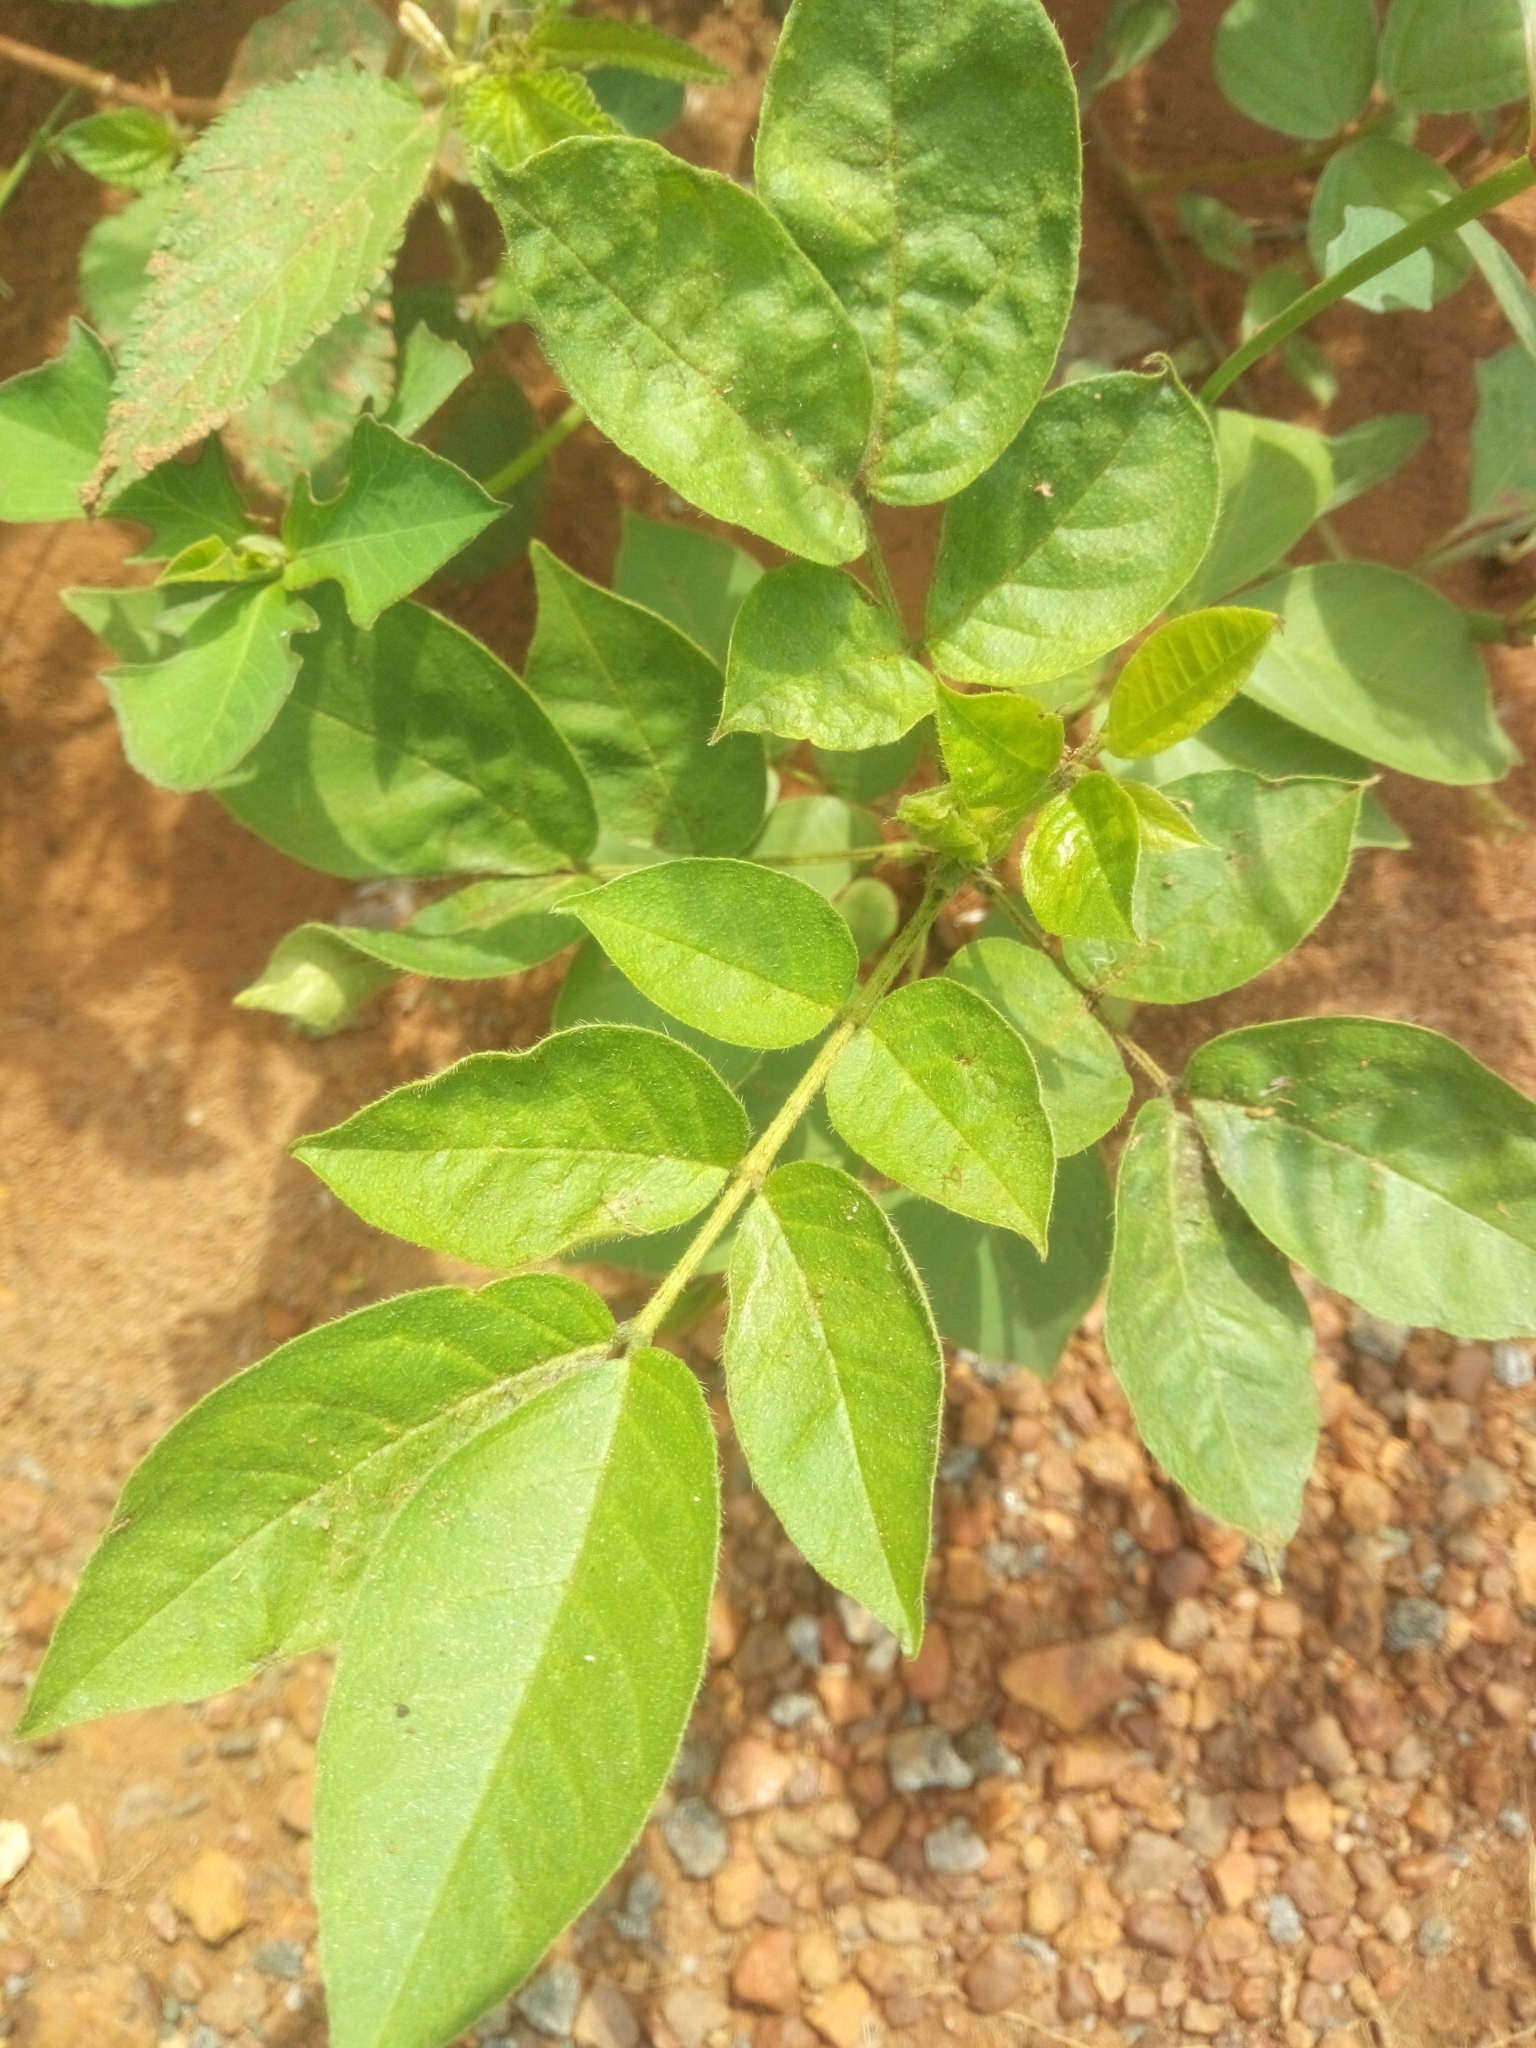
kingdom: Plantae
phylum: Tracheophyta
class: Magnoliopsida
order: Fabales
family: Fabaceae
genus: Senna
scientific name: Senna occidentalis
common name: Septicweed
